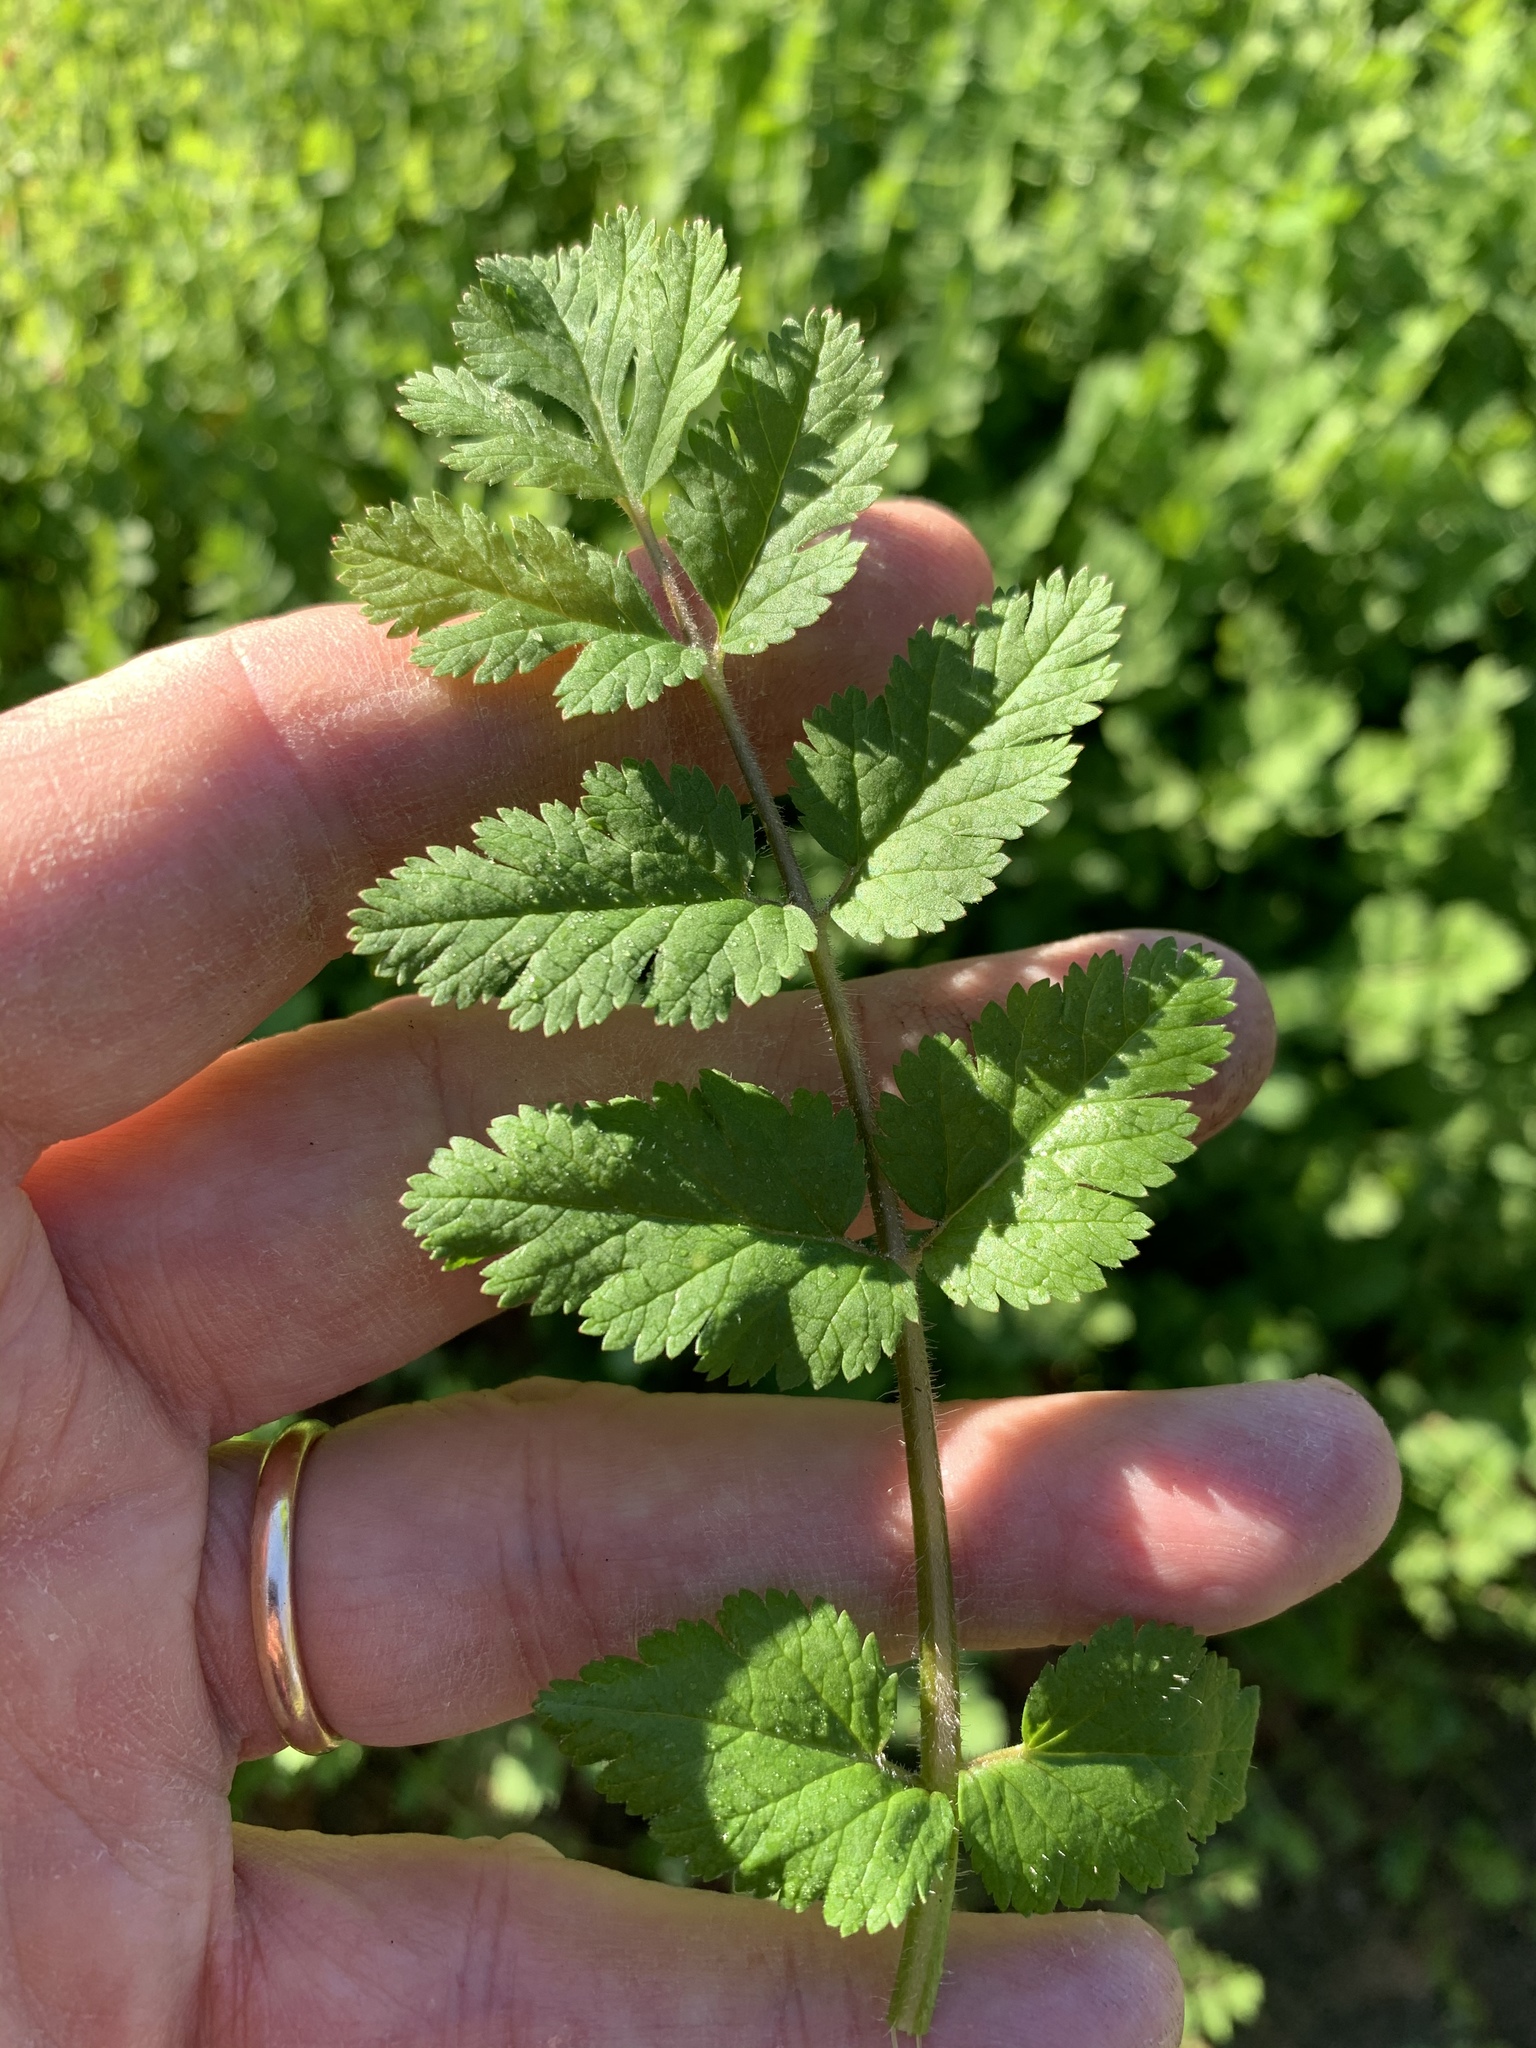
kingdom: Plantae
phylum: Tracheophyta
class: Magnoliopsida
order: Geraniales
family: Geraniaceae
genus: Erodium
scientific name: Erodium moschatum
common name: Musk stork's-bill
